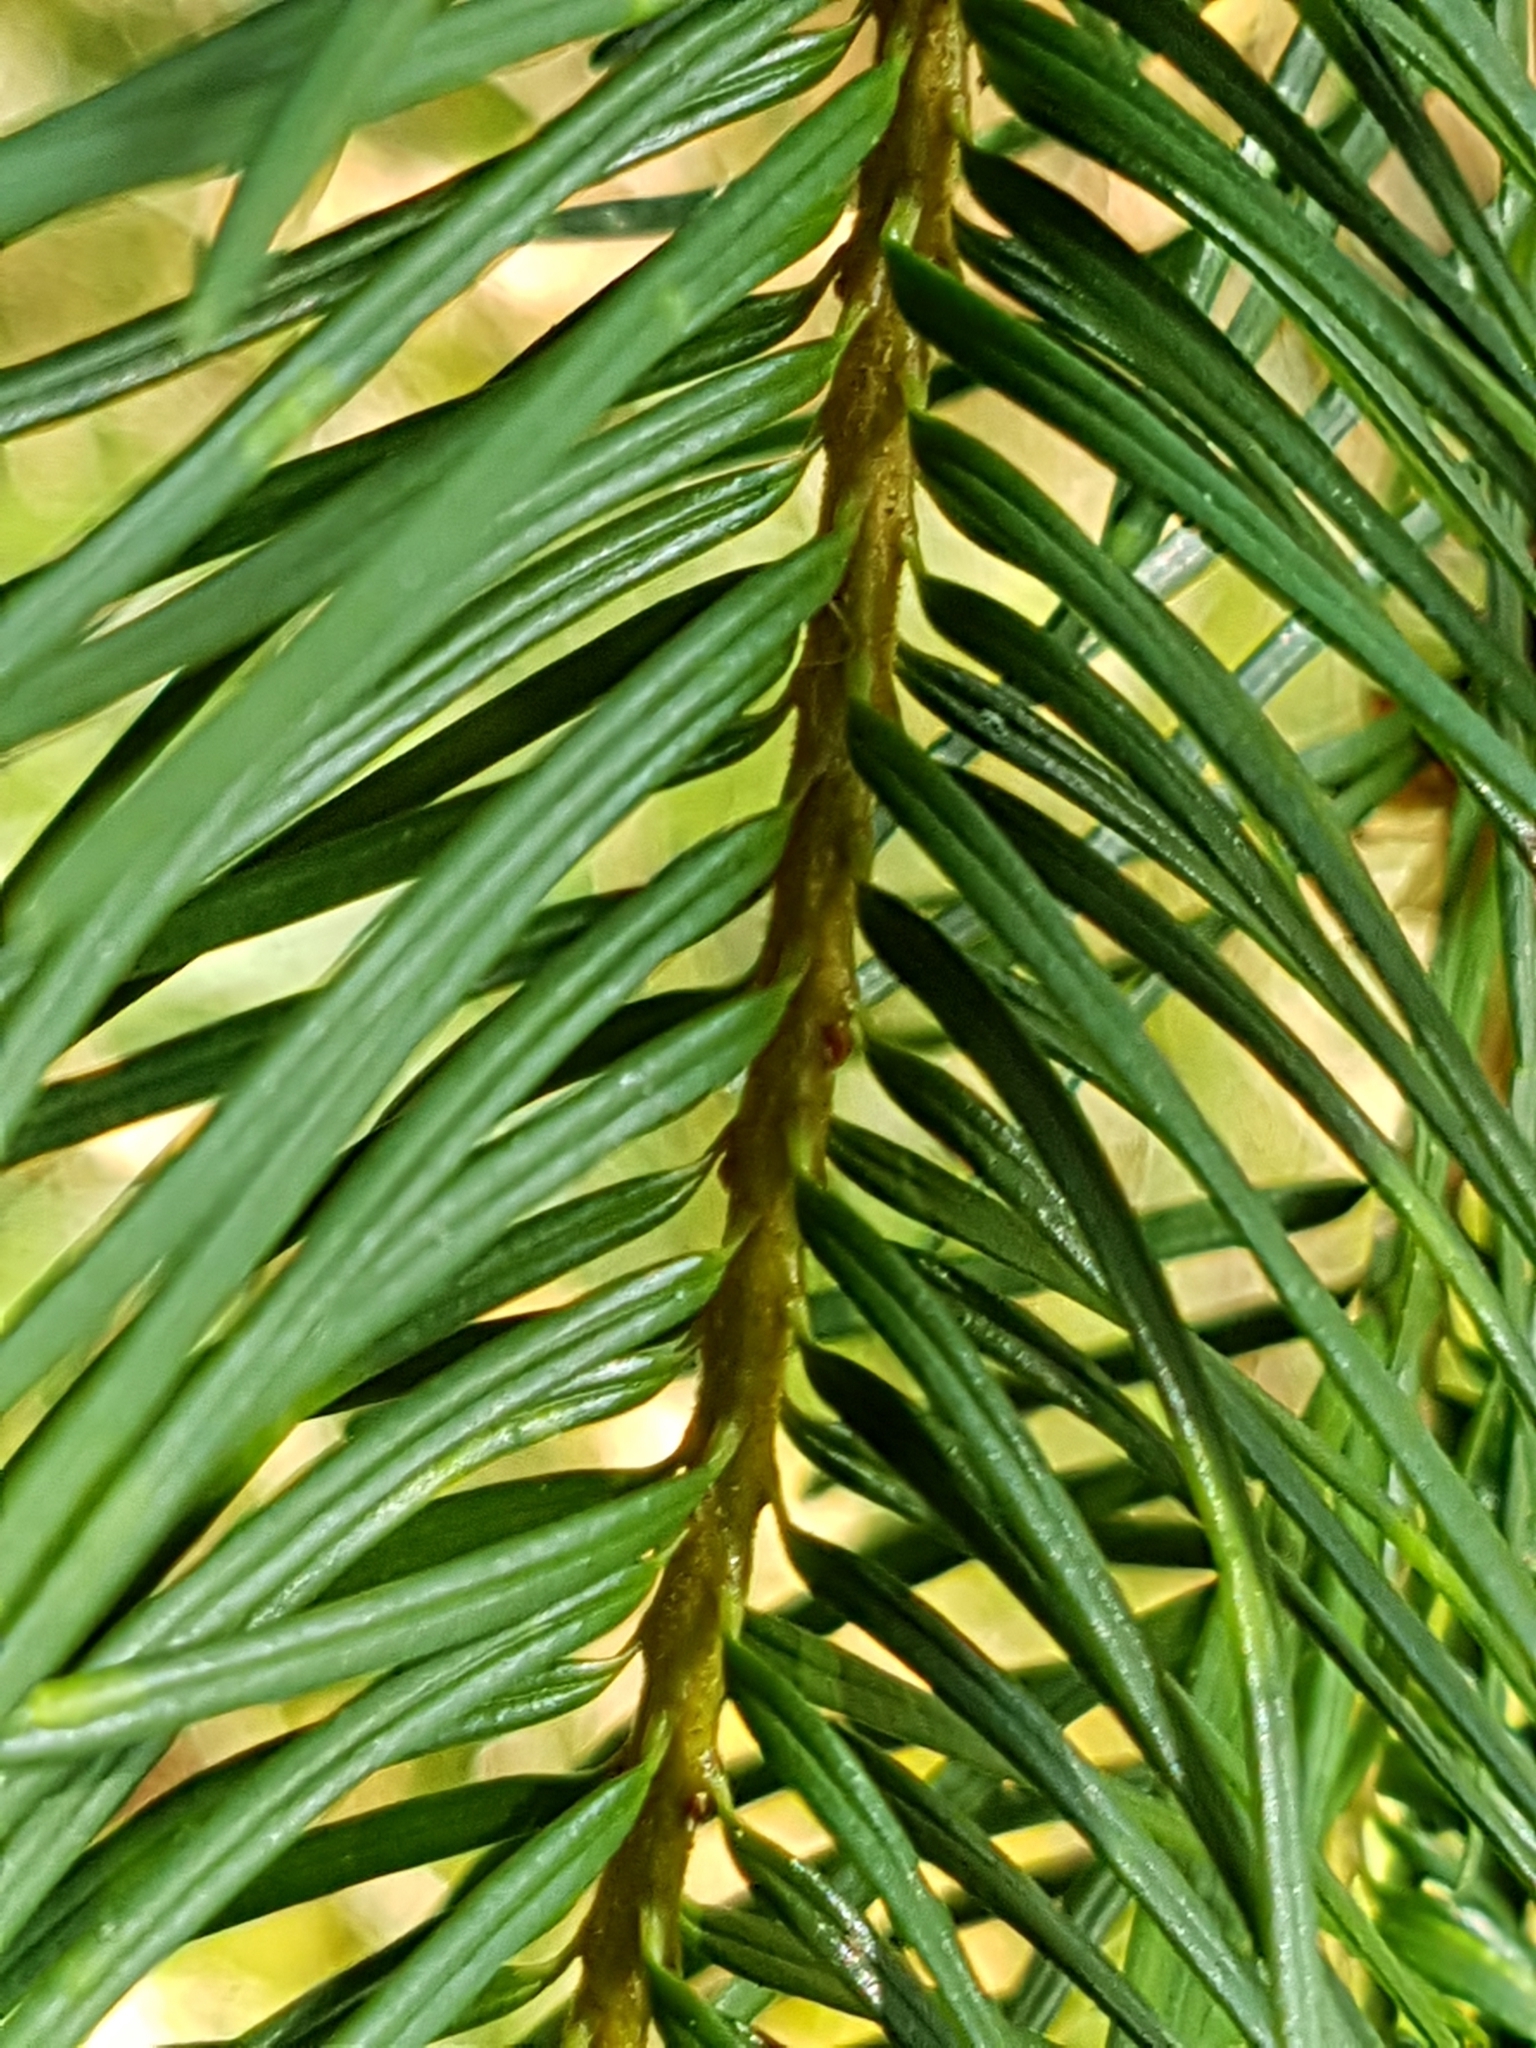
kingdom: Plantae
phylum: Tracheophyta
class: Pinopsida
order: Pinales
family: Pinaceae
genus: Pseudotsuga
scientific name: Pseudotsuga menziesii
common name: Douglas fir
